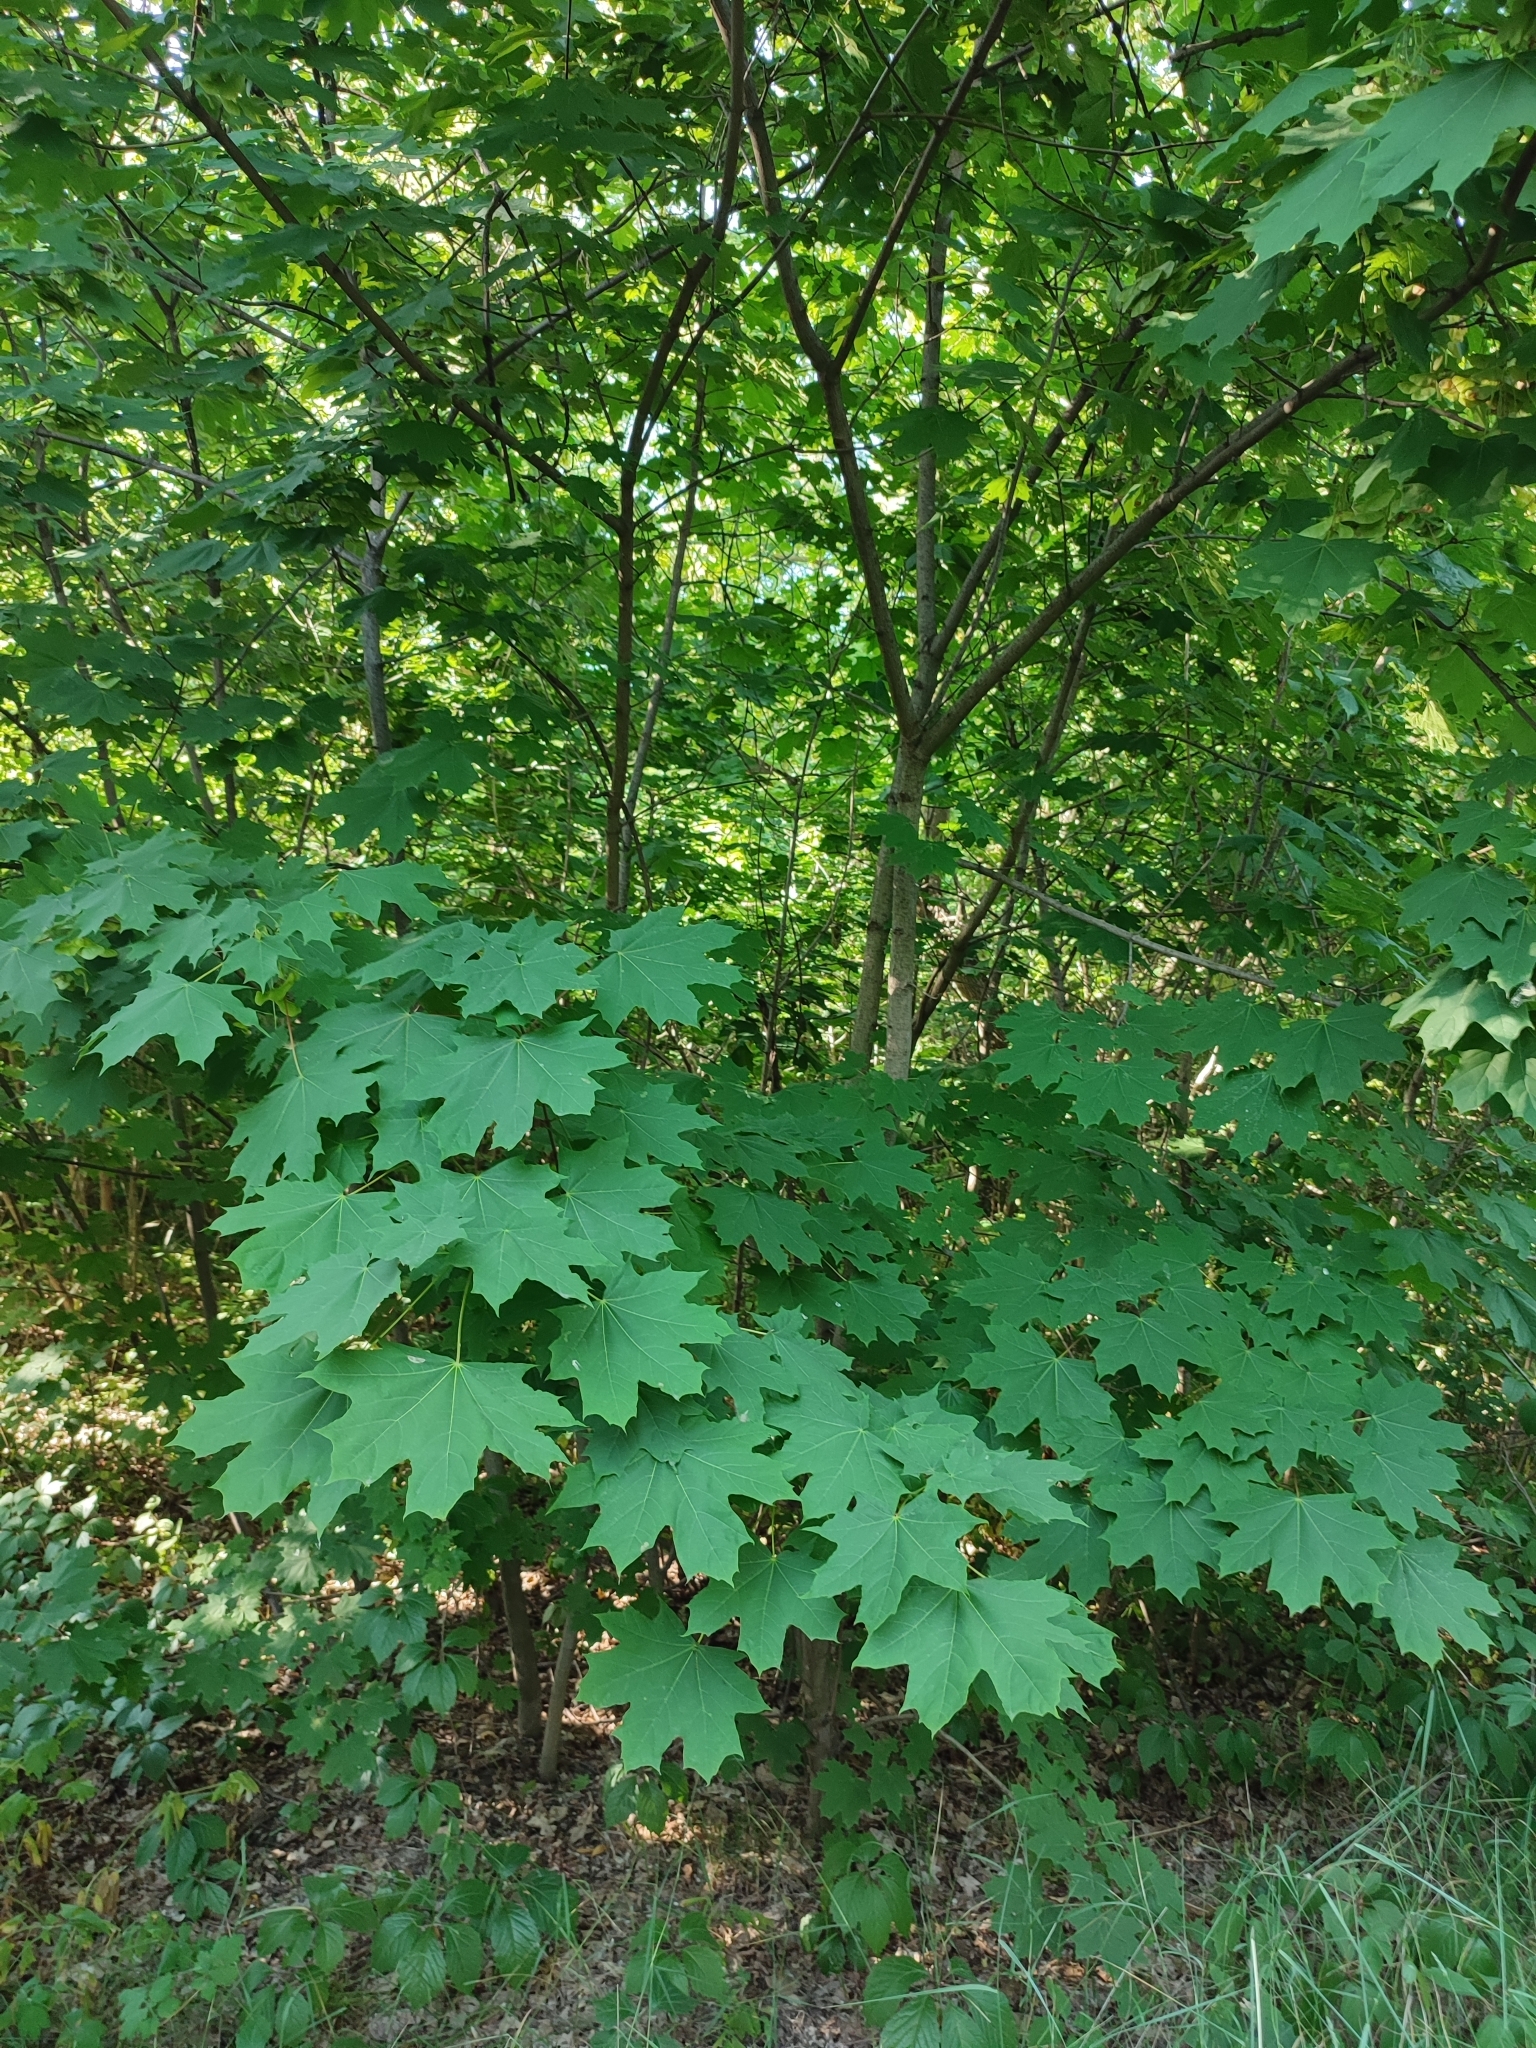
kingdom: Plantae
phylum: Tracheophyta
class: Magnoliopsida
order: Sapindales
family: Sapindaceae
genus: Acer
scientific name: Acer platanoides
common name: Norway maple
